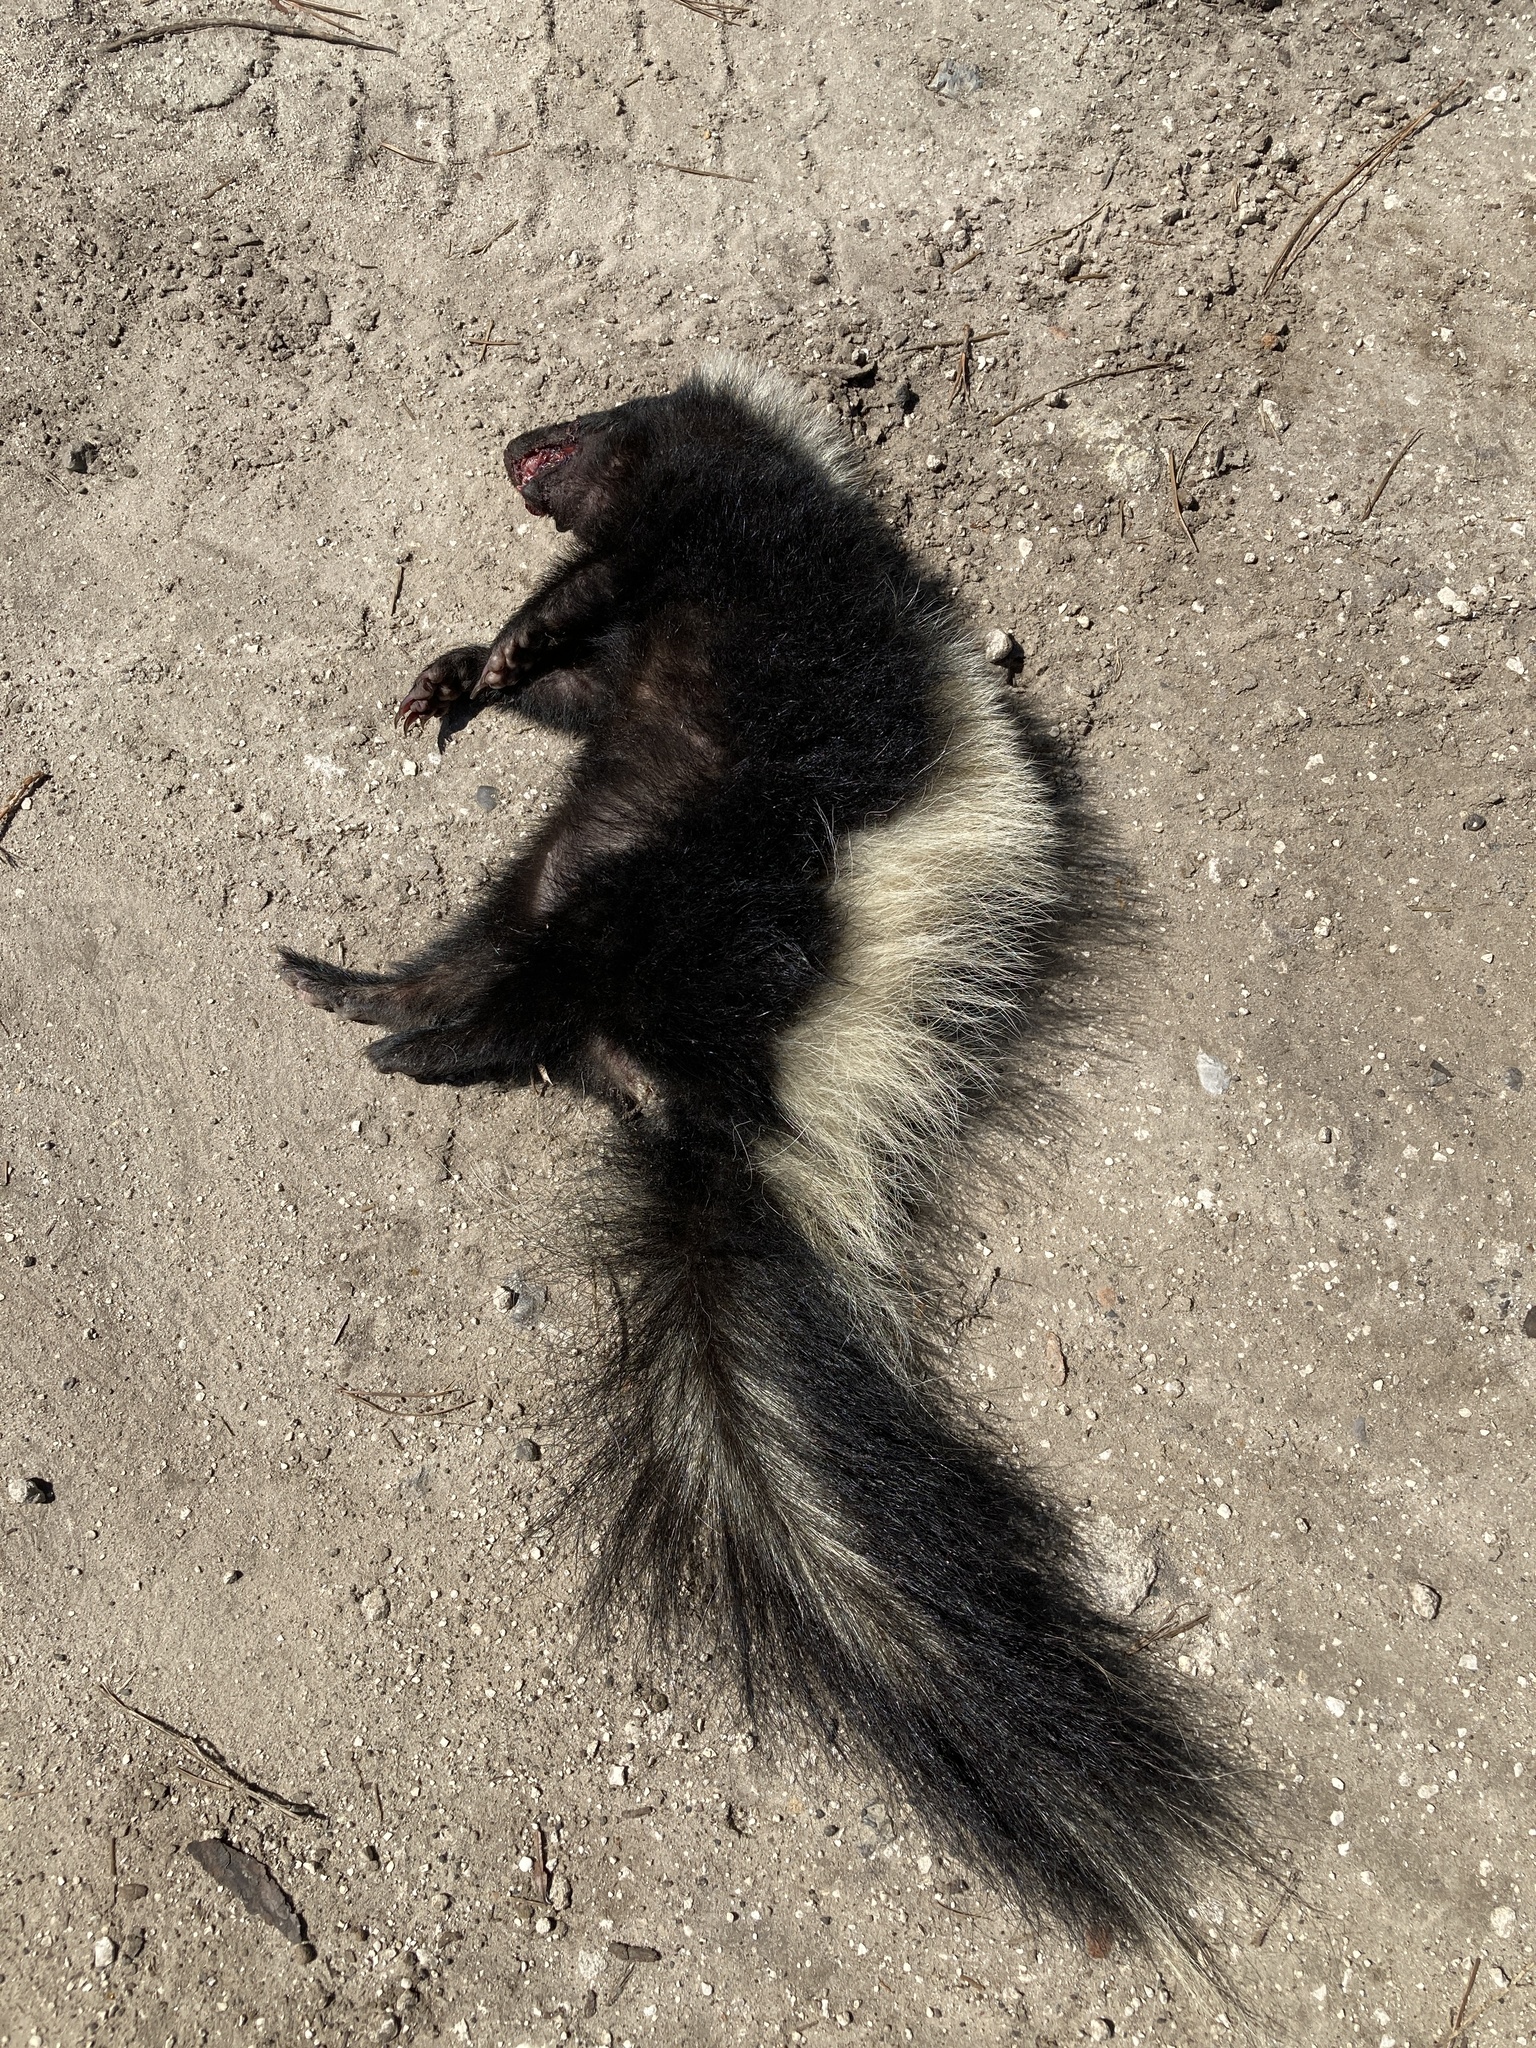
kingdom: Animalia
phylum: Chordata
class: Mammalia
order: Carnivora
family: Mephitidae
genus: Mephitis
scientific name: Mephitis mephitis
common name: Striped skunk
